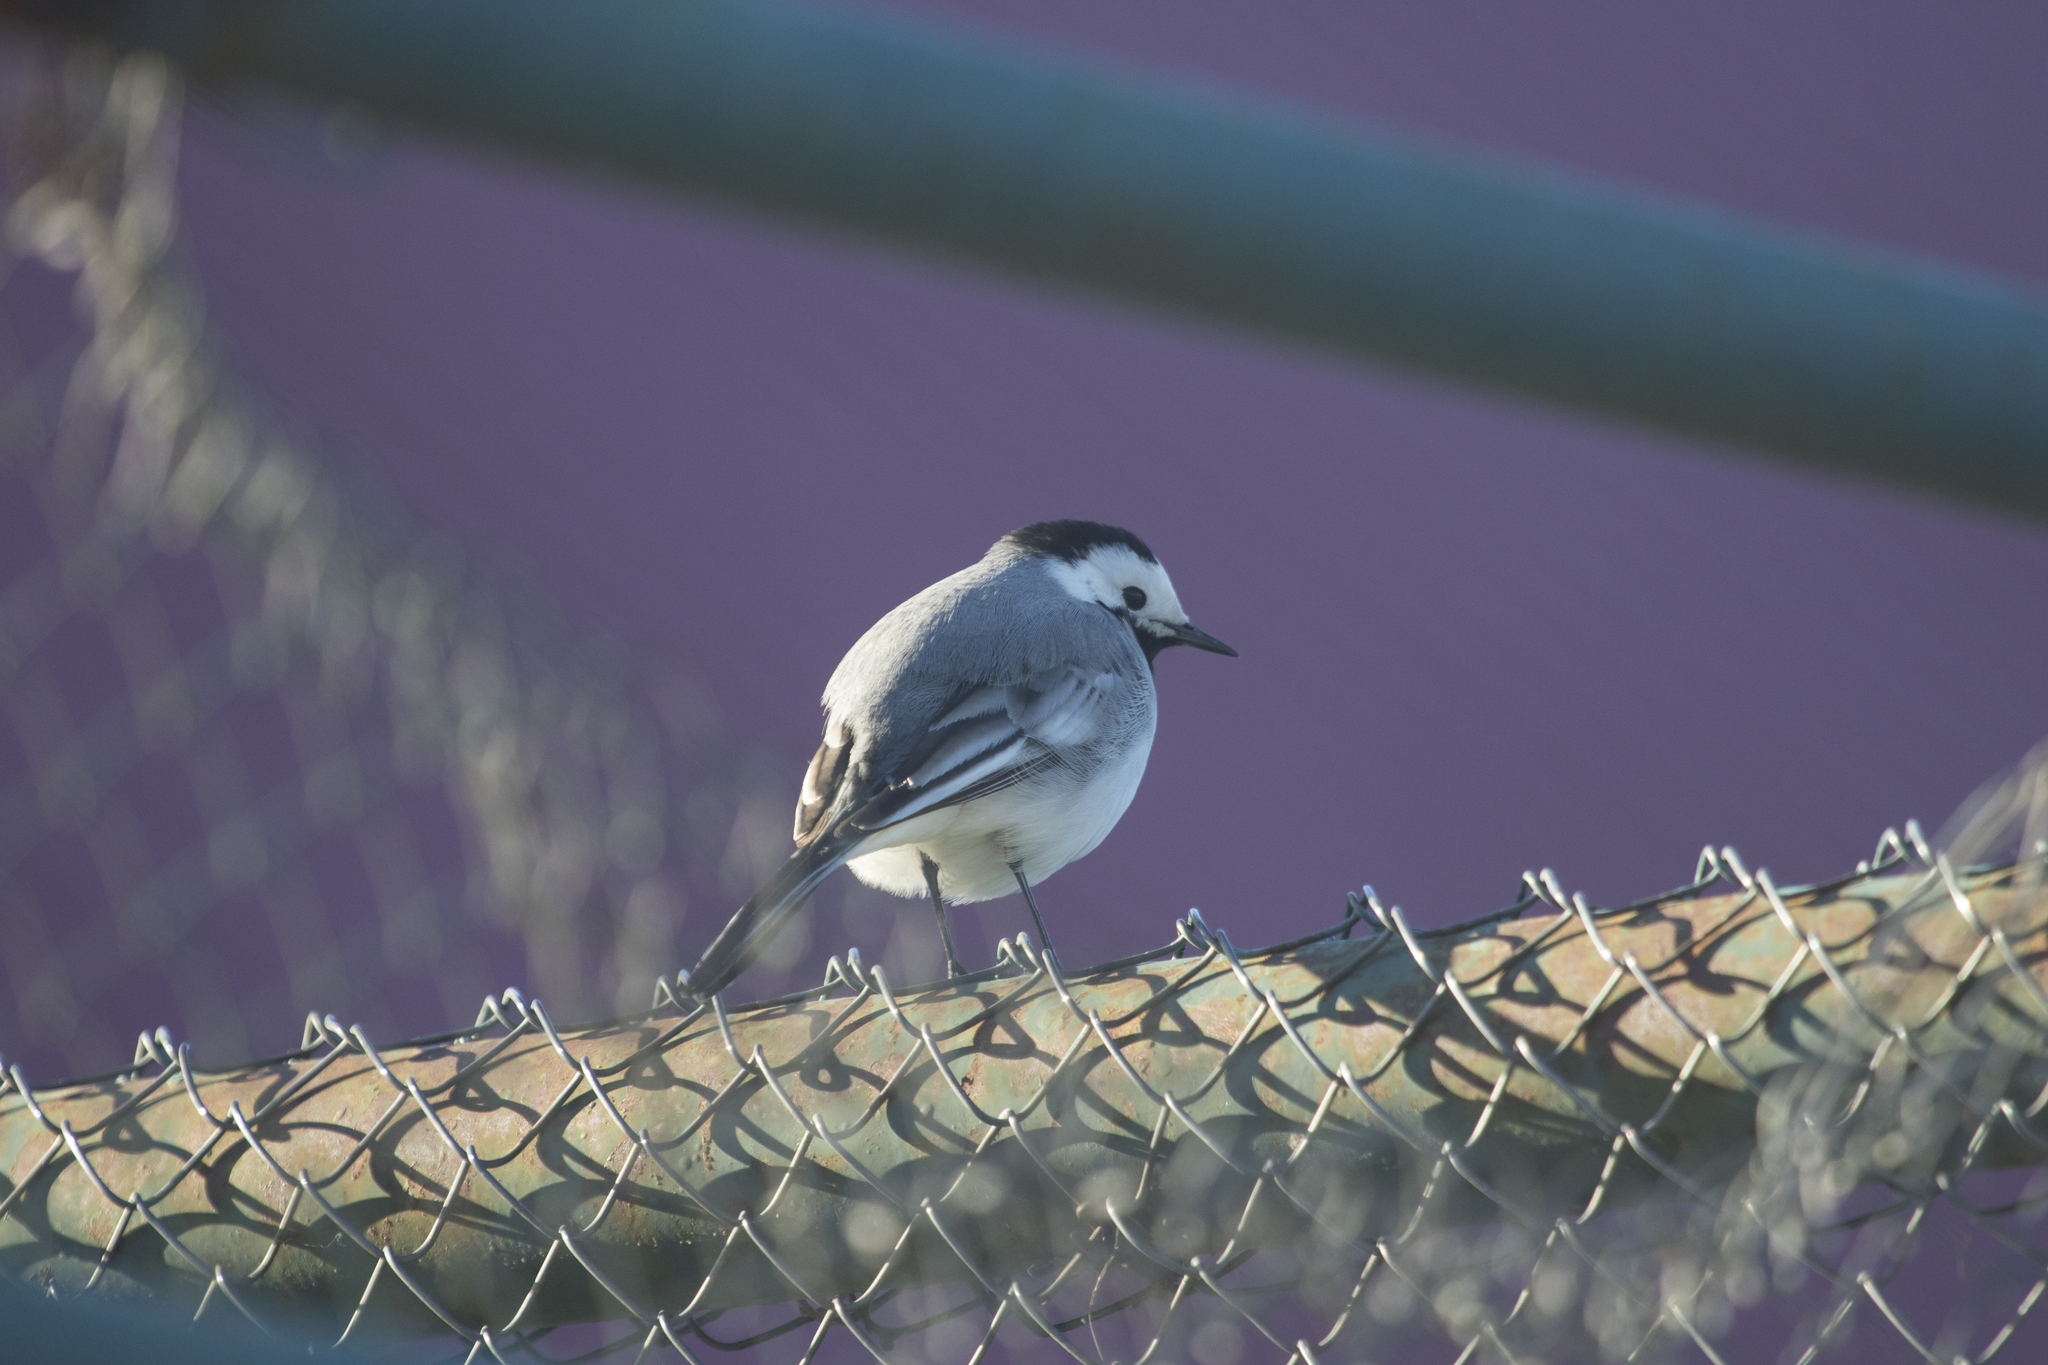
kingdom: Animalia
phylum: Chordata
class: Aves
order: Passeriformes
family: Motacillidae
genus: Motacilla
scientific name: Motacilla alba
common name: White wagtail
